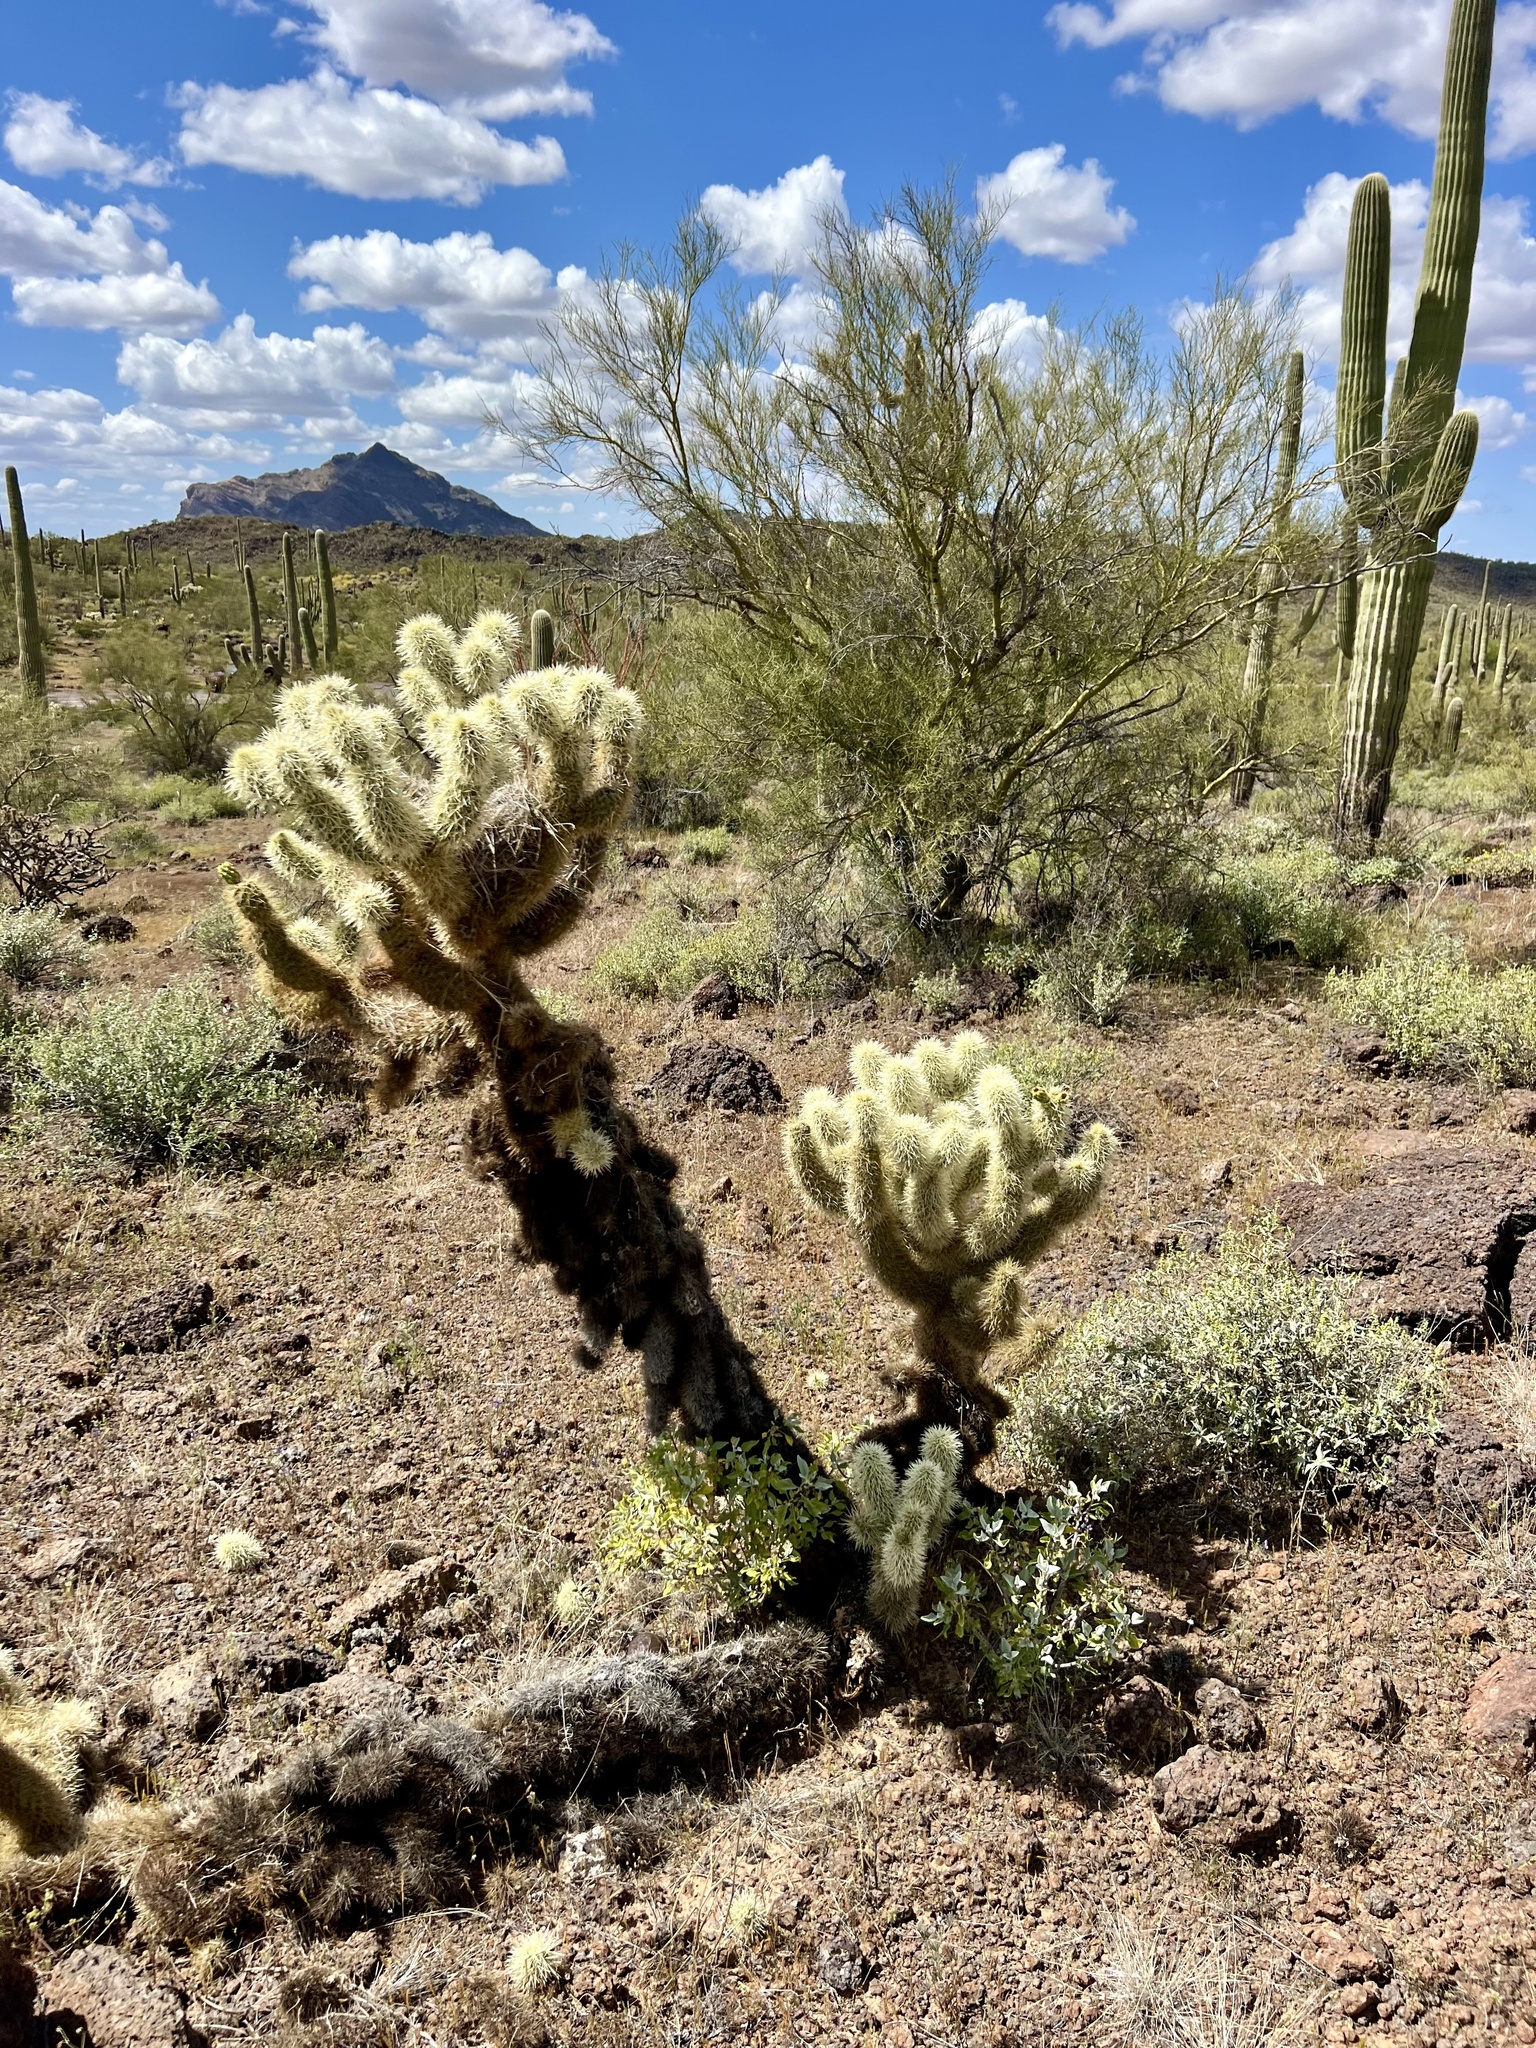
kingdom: Plantae
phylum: Tracheophyta
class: Magnoliopsida
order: Caryophyllales
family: Cactaceae
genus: Cylindropuntia
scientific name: Cylindropuntia fosbergii
